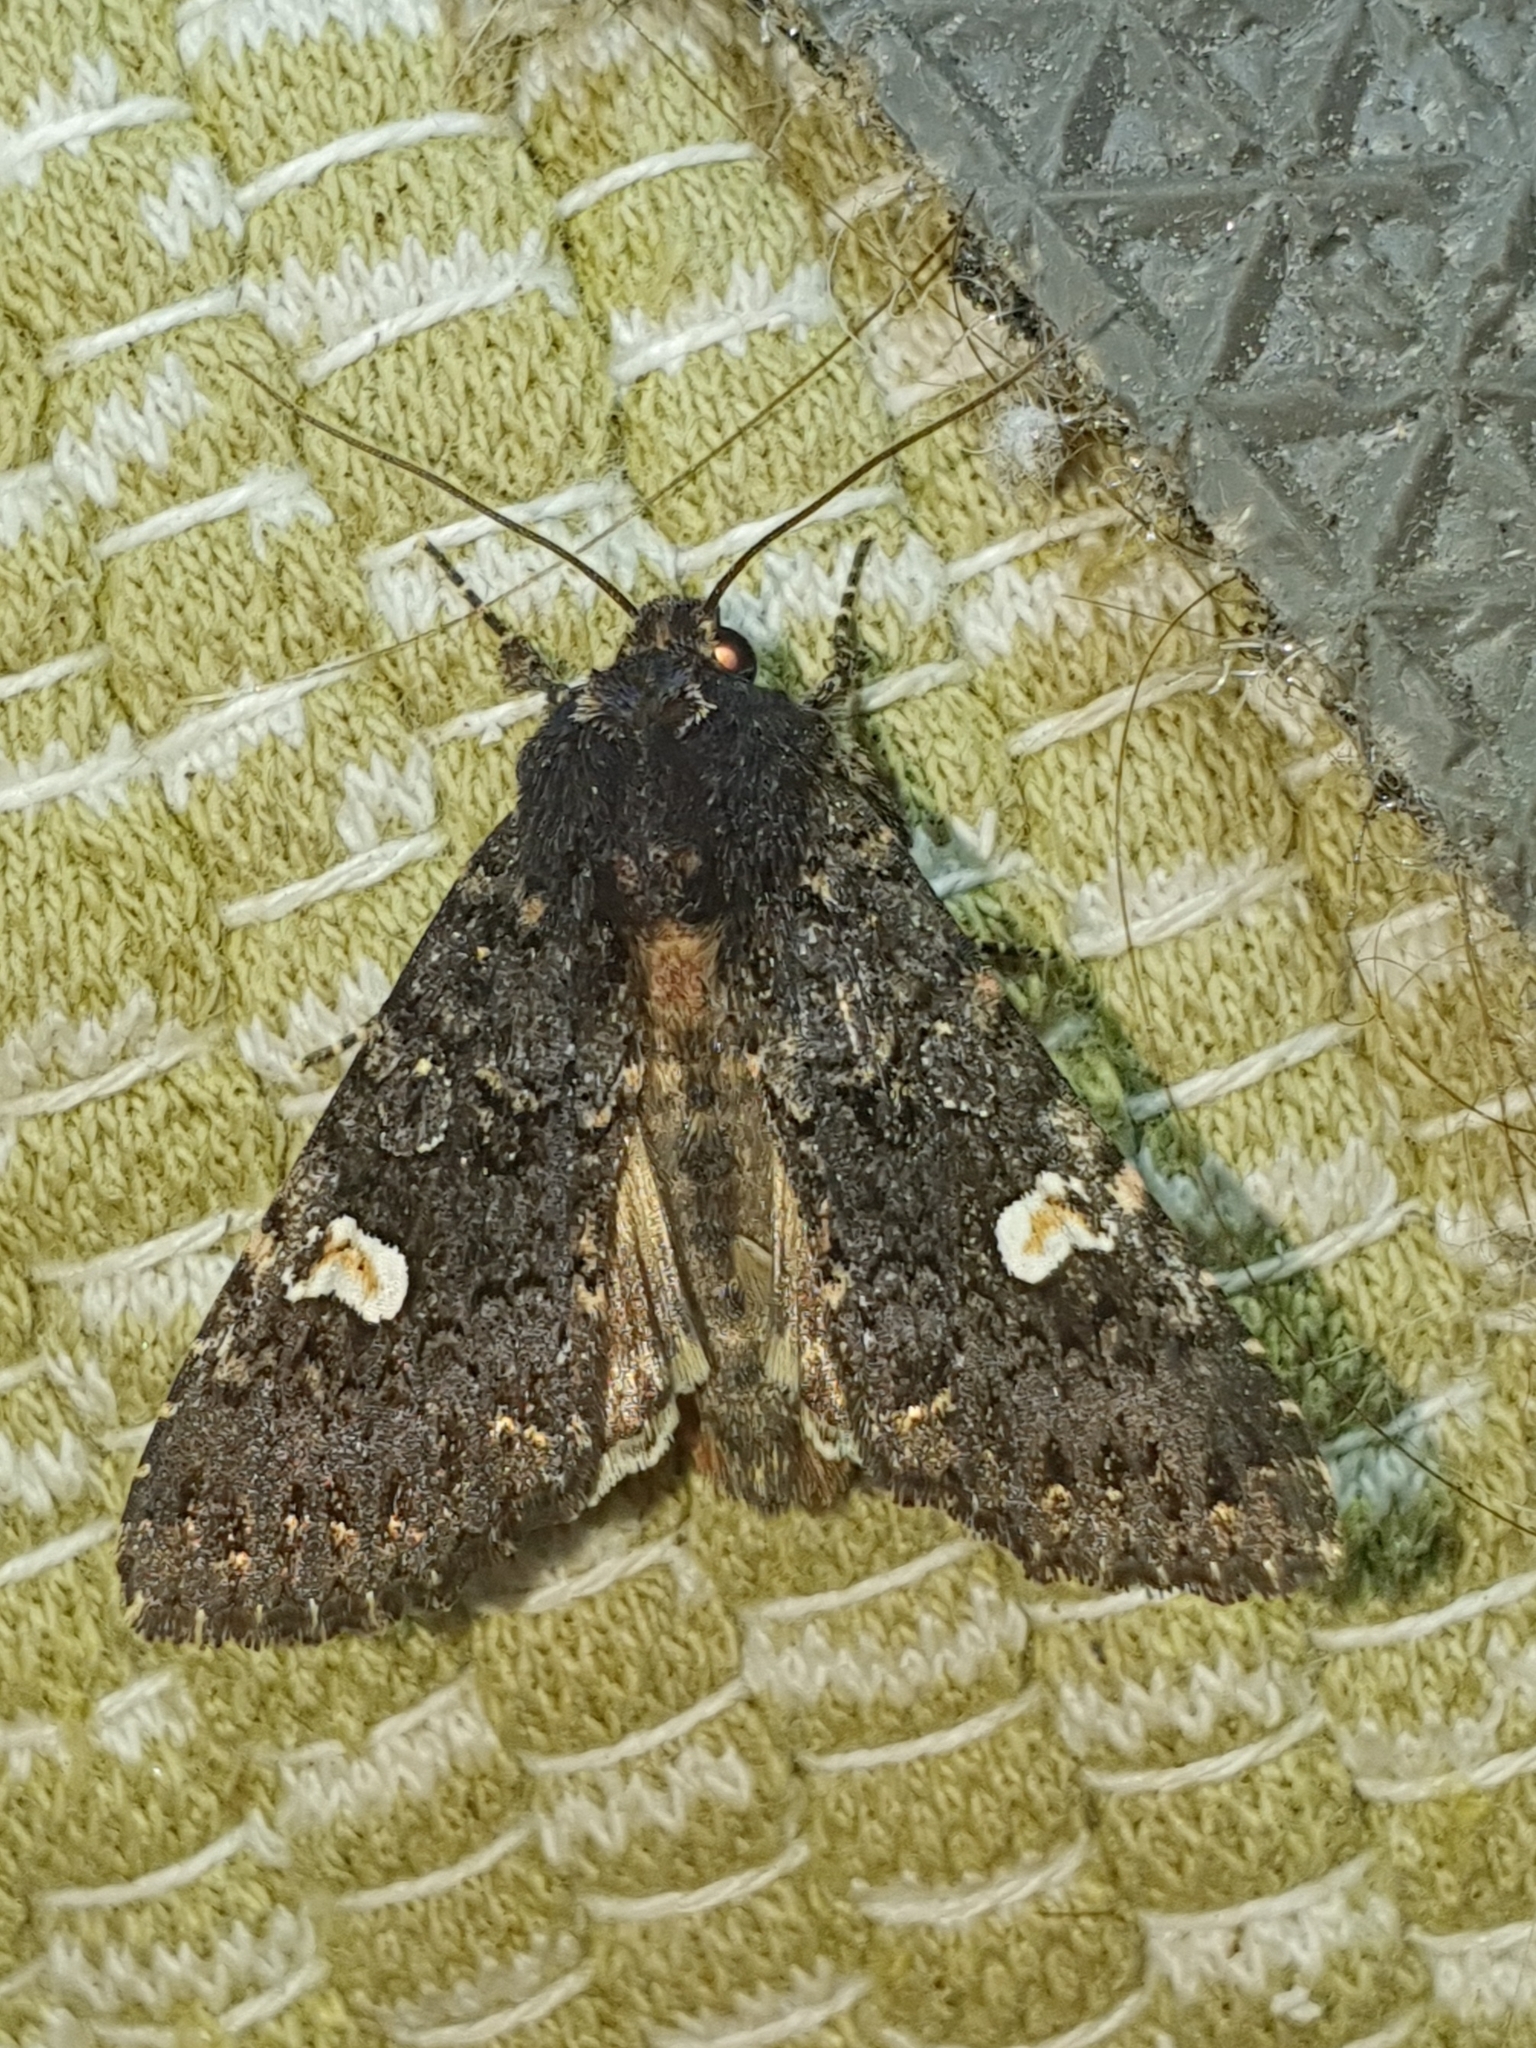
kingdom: Animalia
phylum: Arthropoda
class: Insecta
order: Lepidoptera
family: Noctuidae
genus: Melanchra
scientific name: Melanchra persicariae
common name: Dot moth
